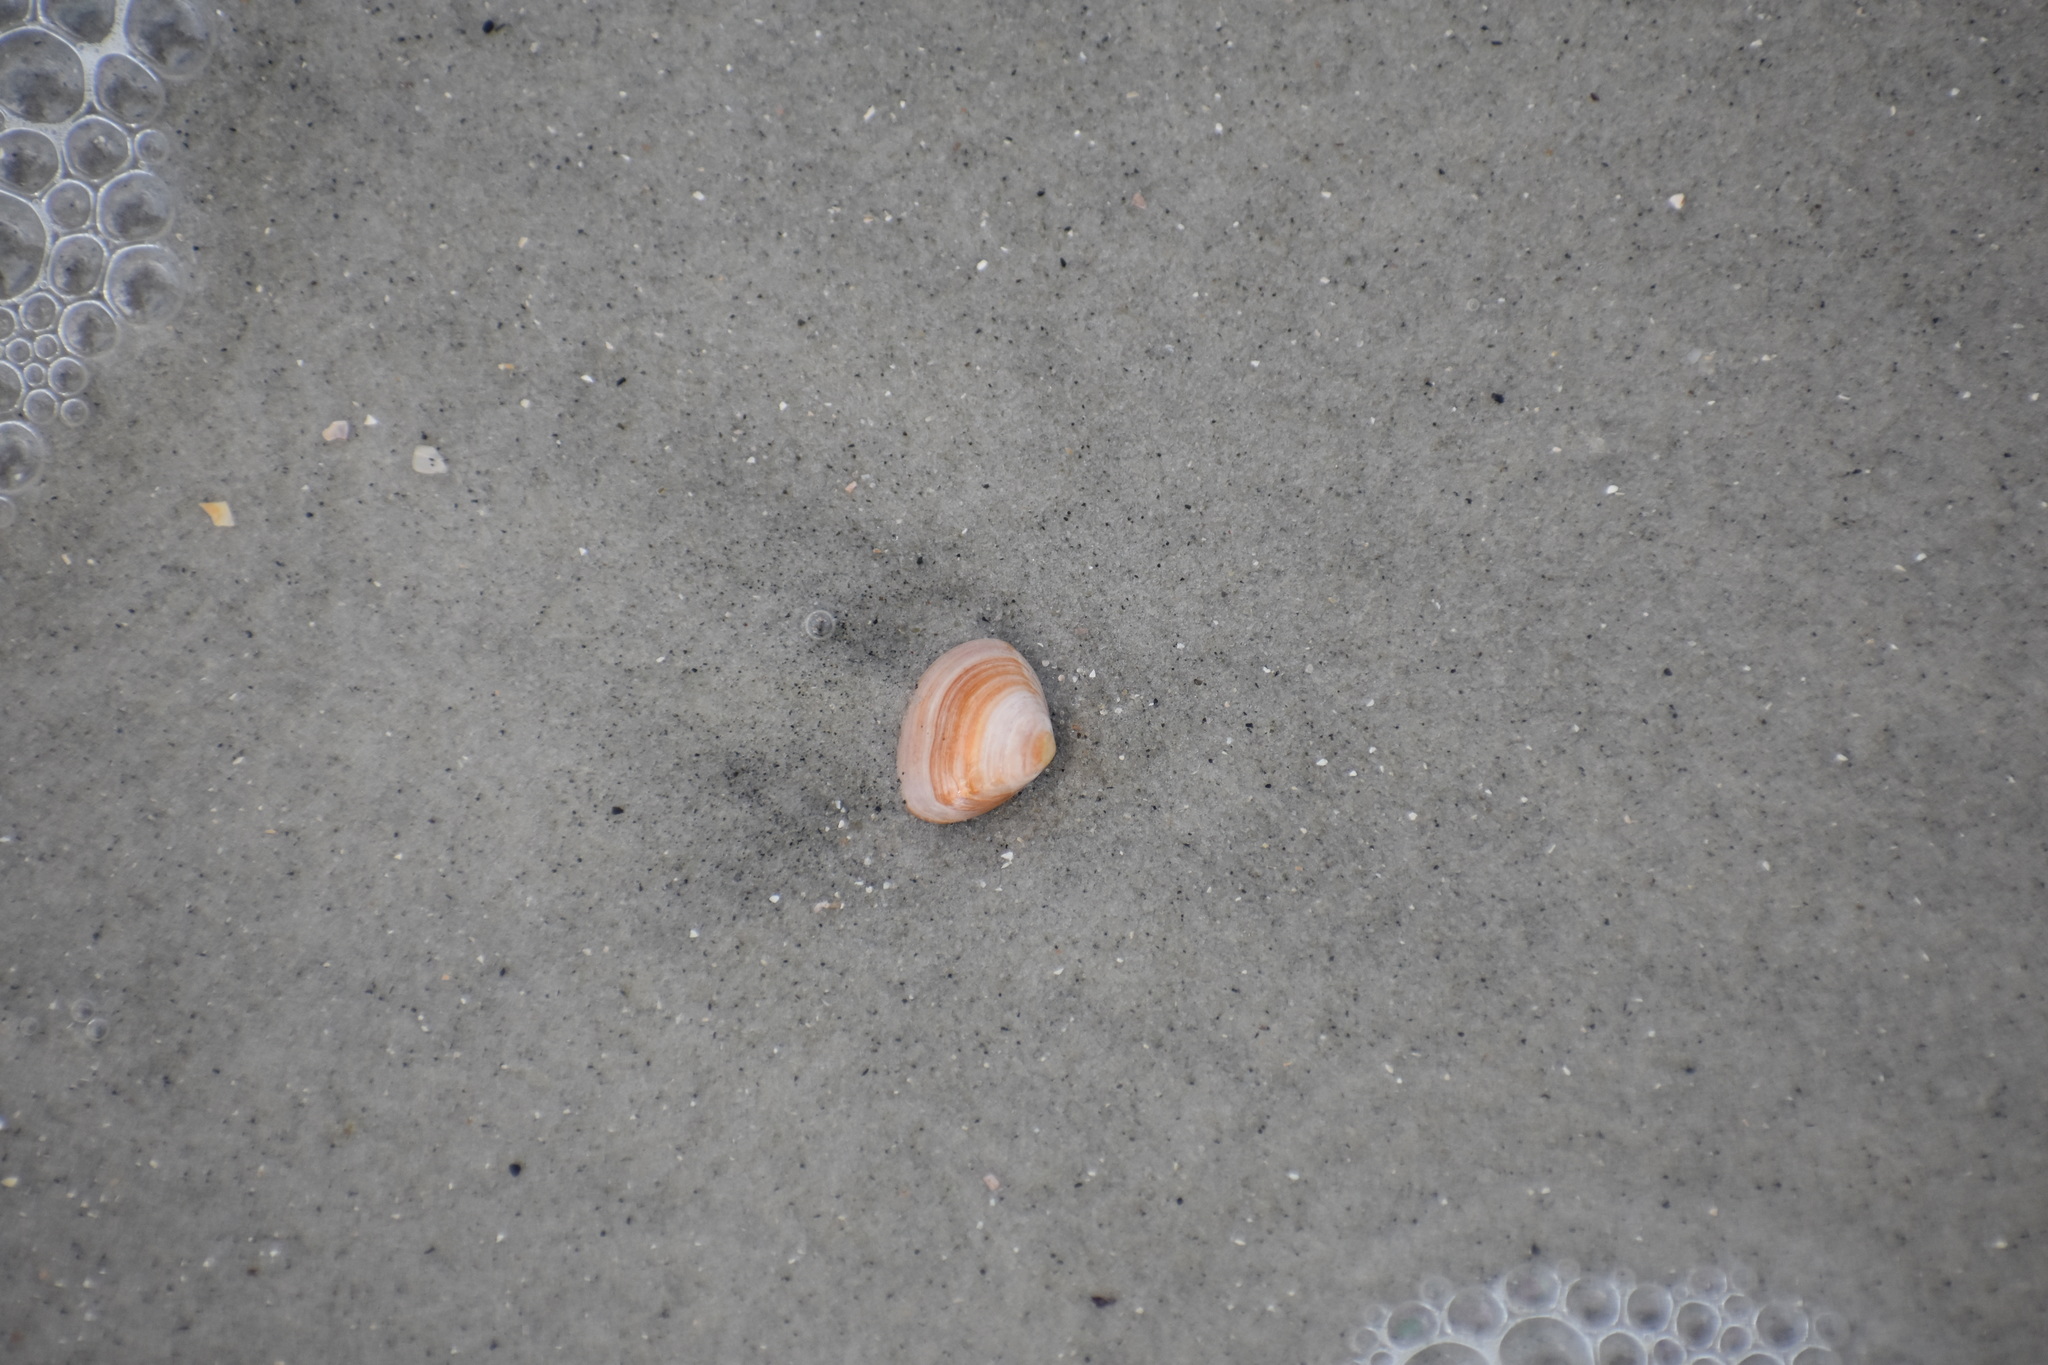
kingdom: Animalia
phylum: Mollusca
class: Bivalvia
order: Venerida
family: Mactridae
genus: Mulinia
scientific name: Mulinia lateralis
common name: Dwarf surfclam
